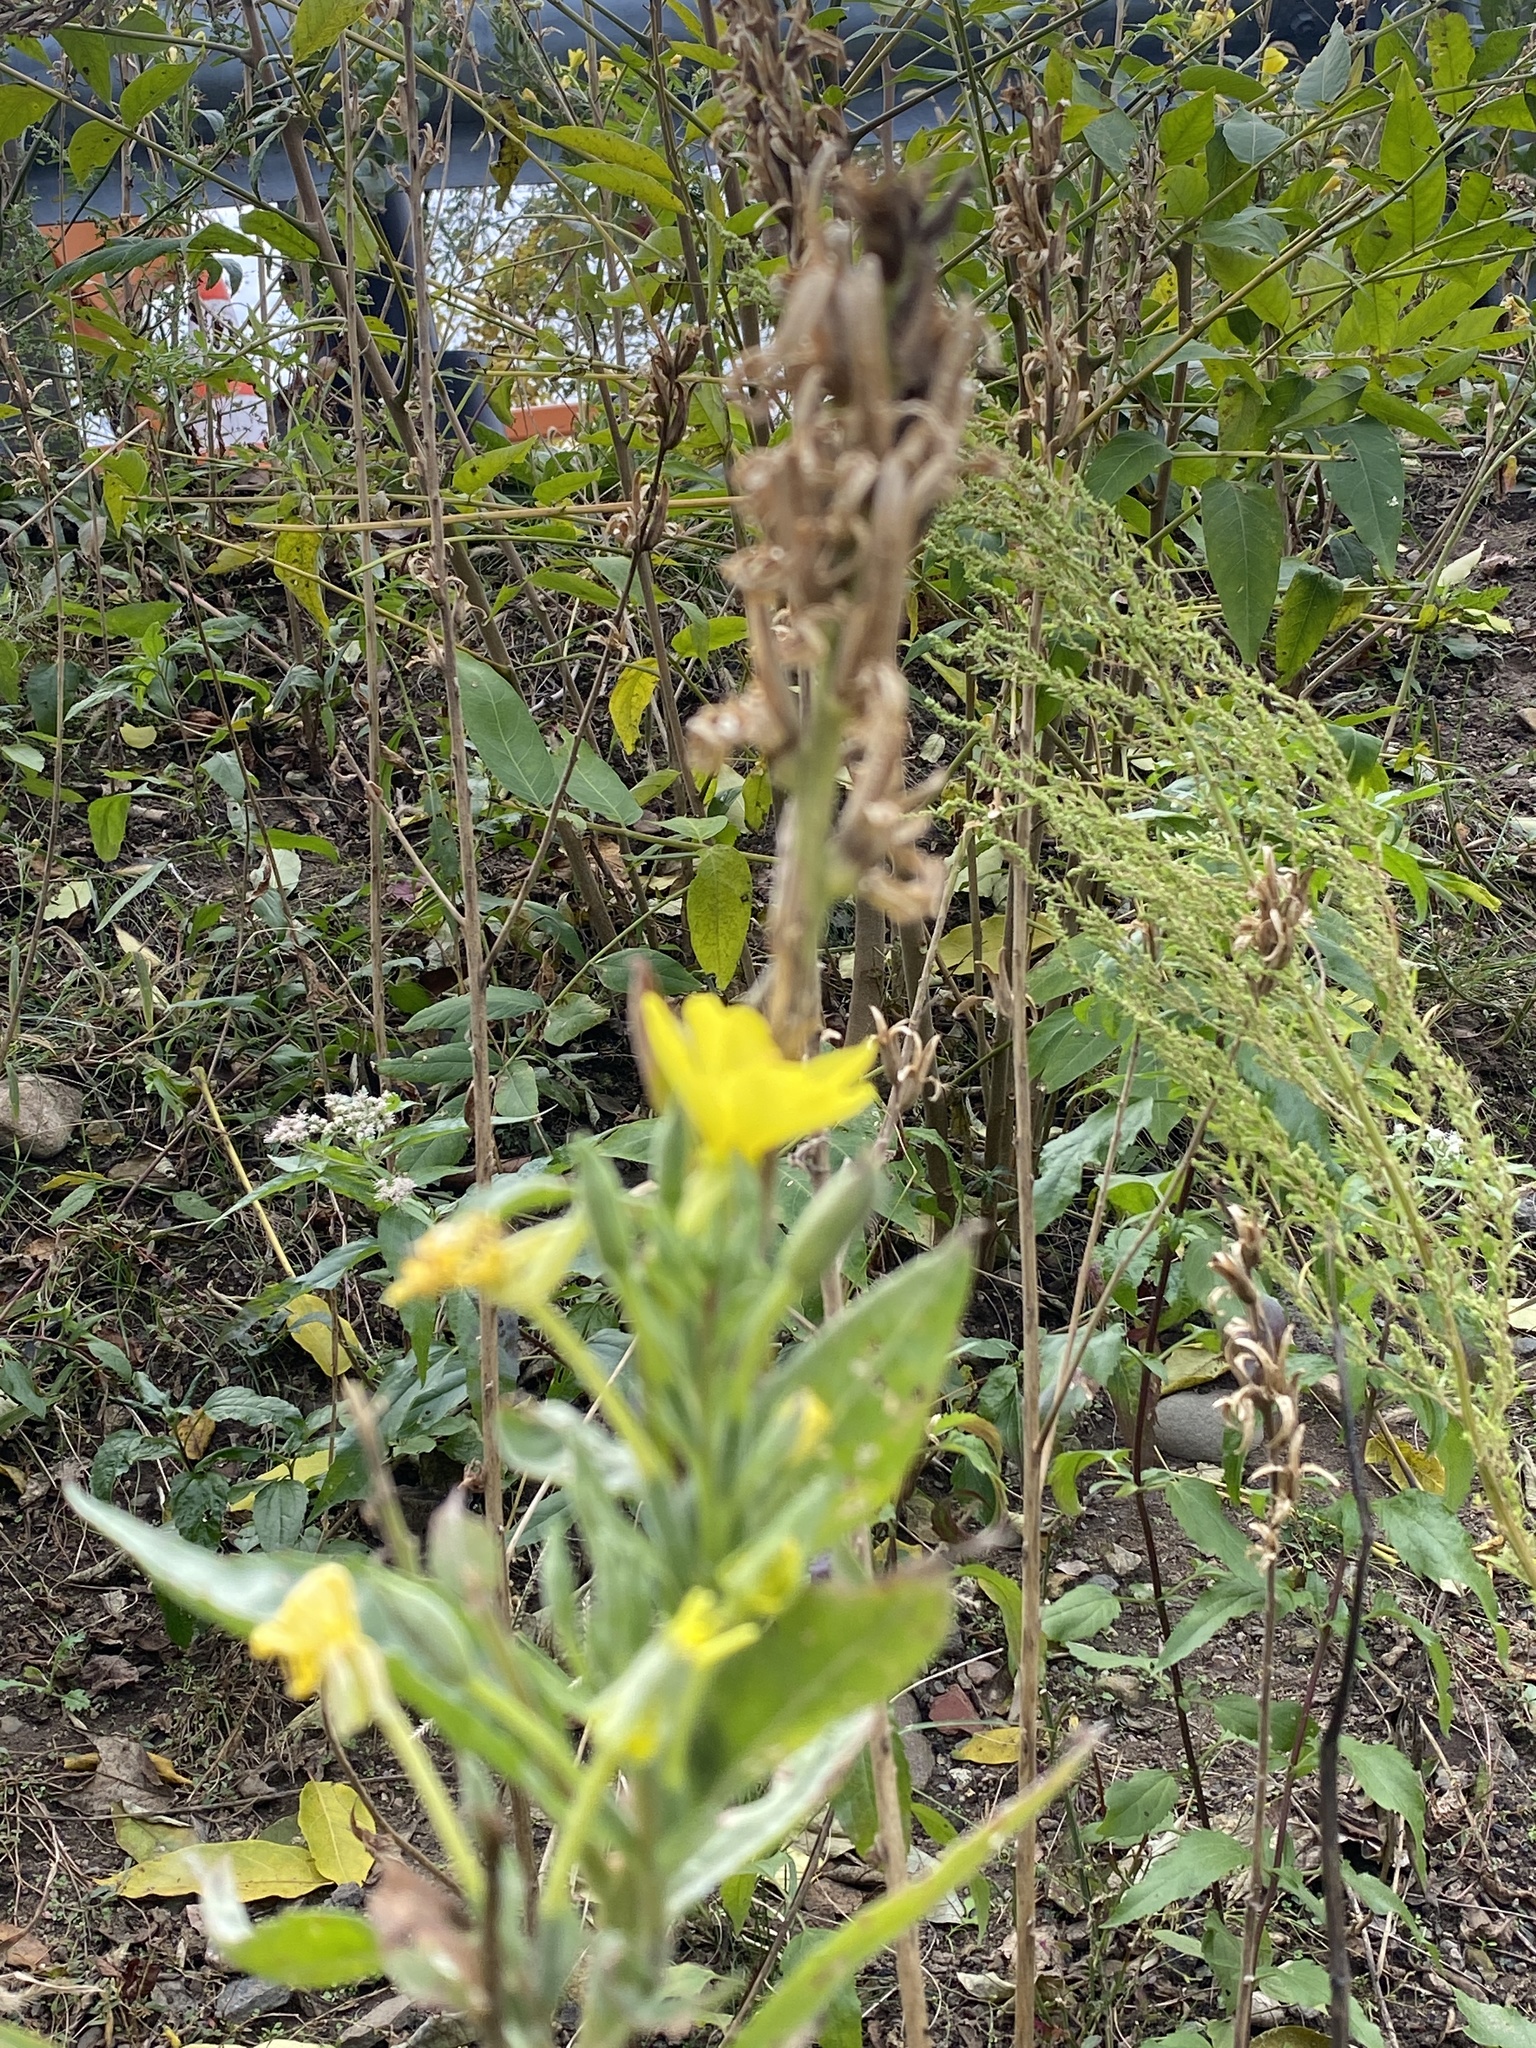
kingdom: Plantae
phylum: Tracheophyta
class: Magnoliopsida
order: Myrtales
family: Onagraceae
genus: Oenothera
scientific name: Oenothera biennis
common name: Common evening-primrose
